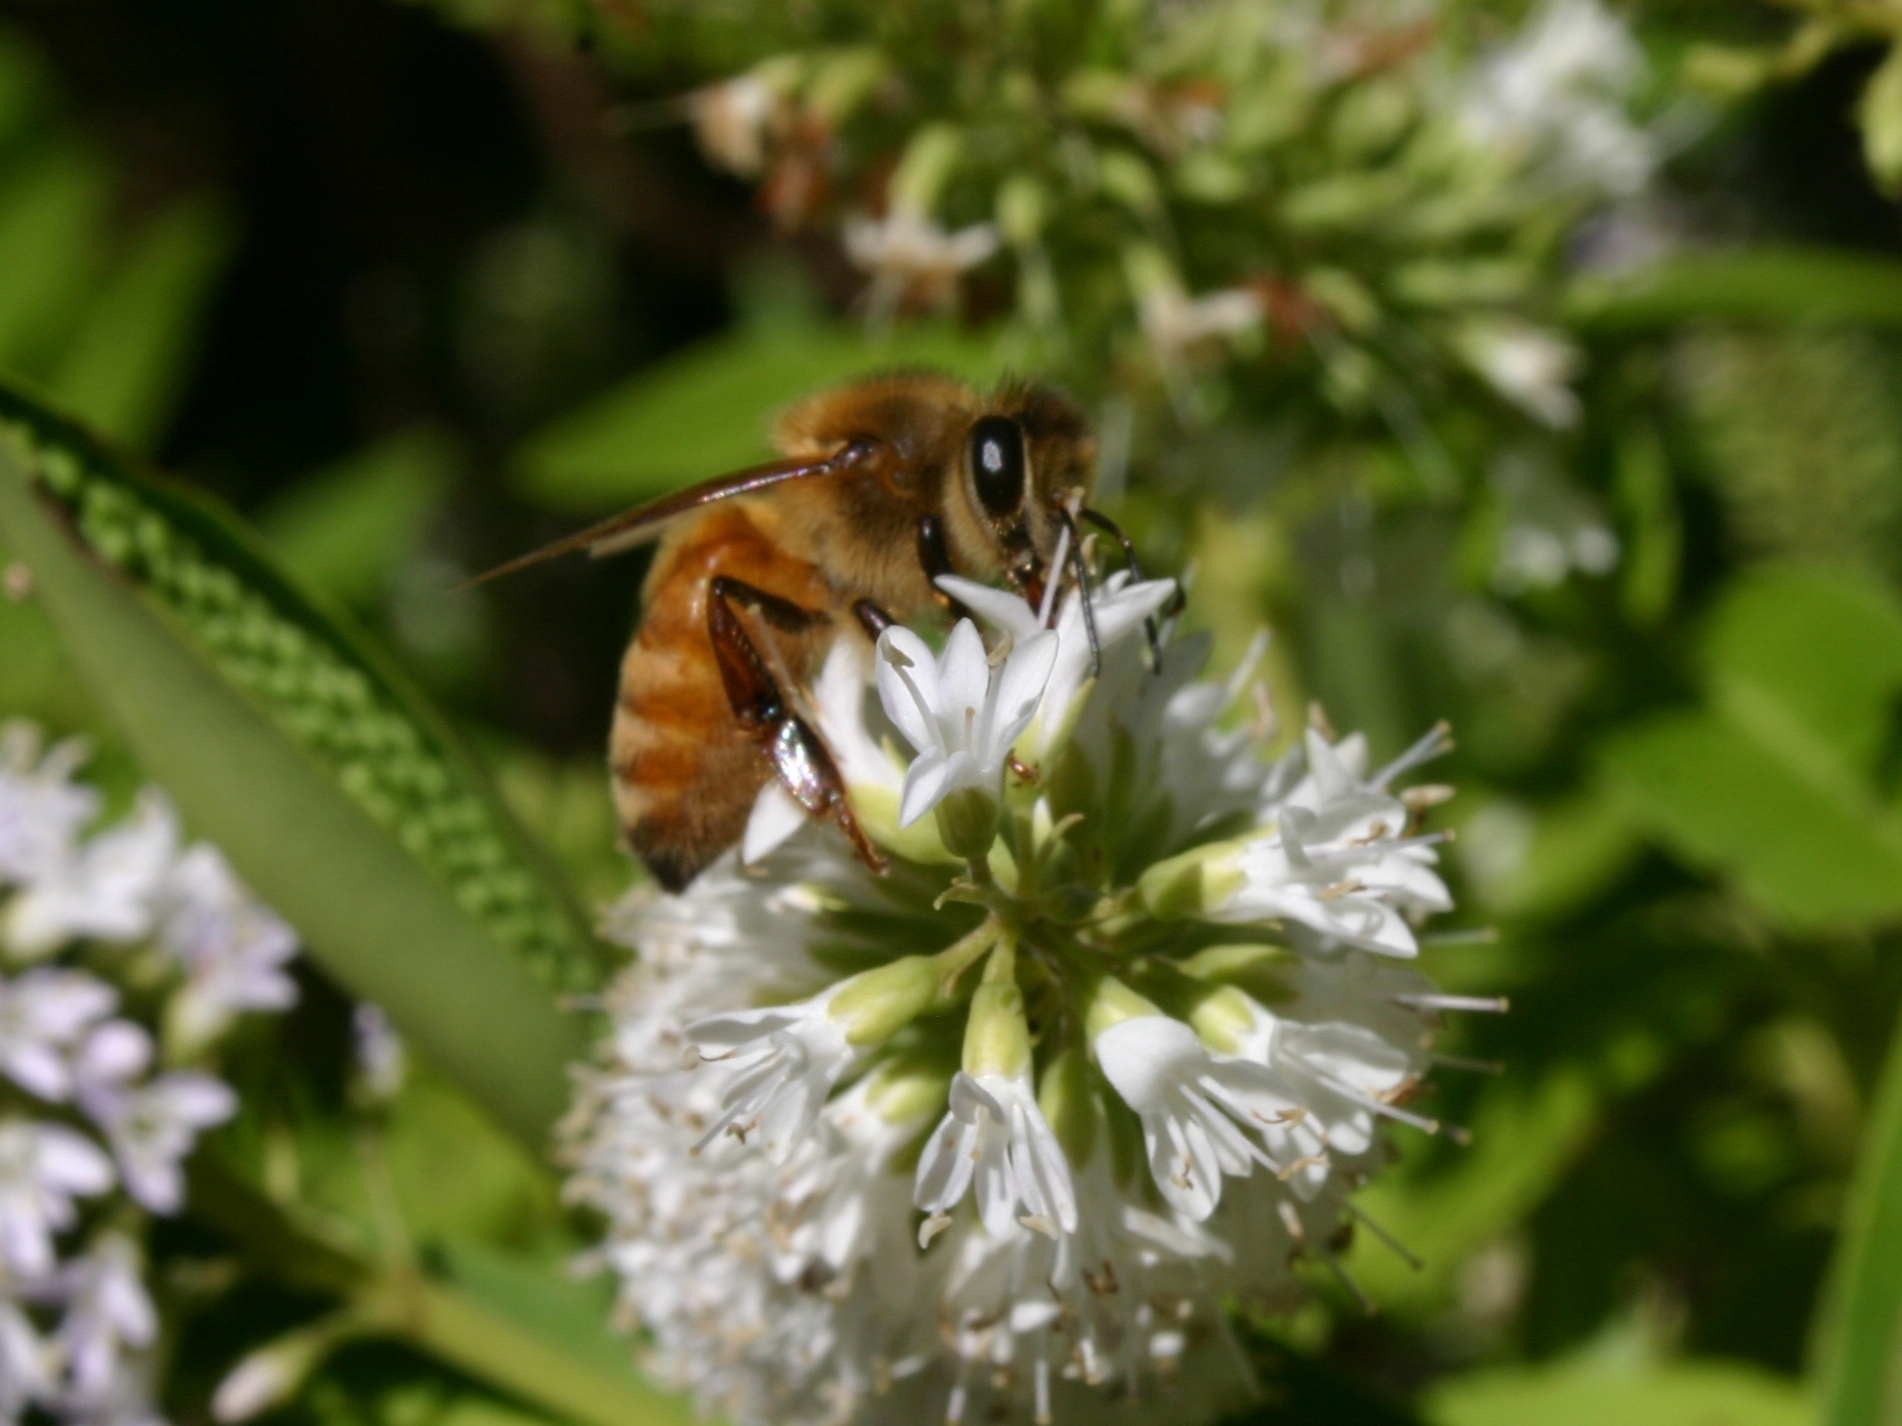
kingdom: Animalia
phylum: Arthropoda
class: Insecta
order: Hymenoptera
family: Apidae
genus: Apis
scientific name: Apis mellifera
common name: Honey bee
